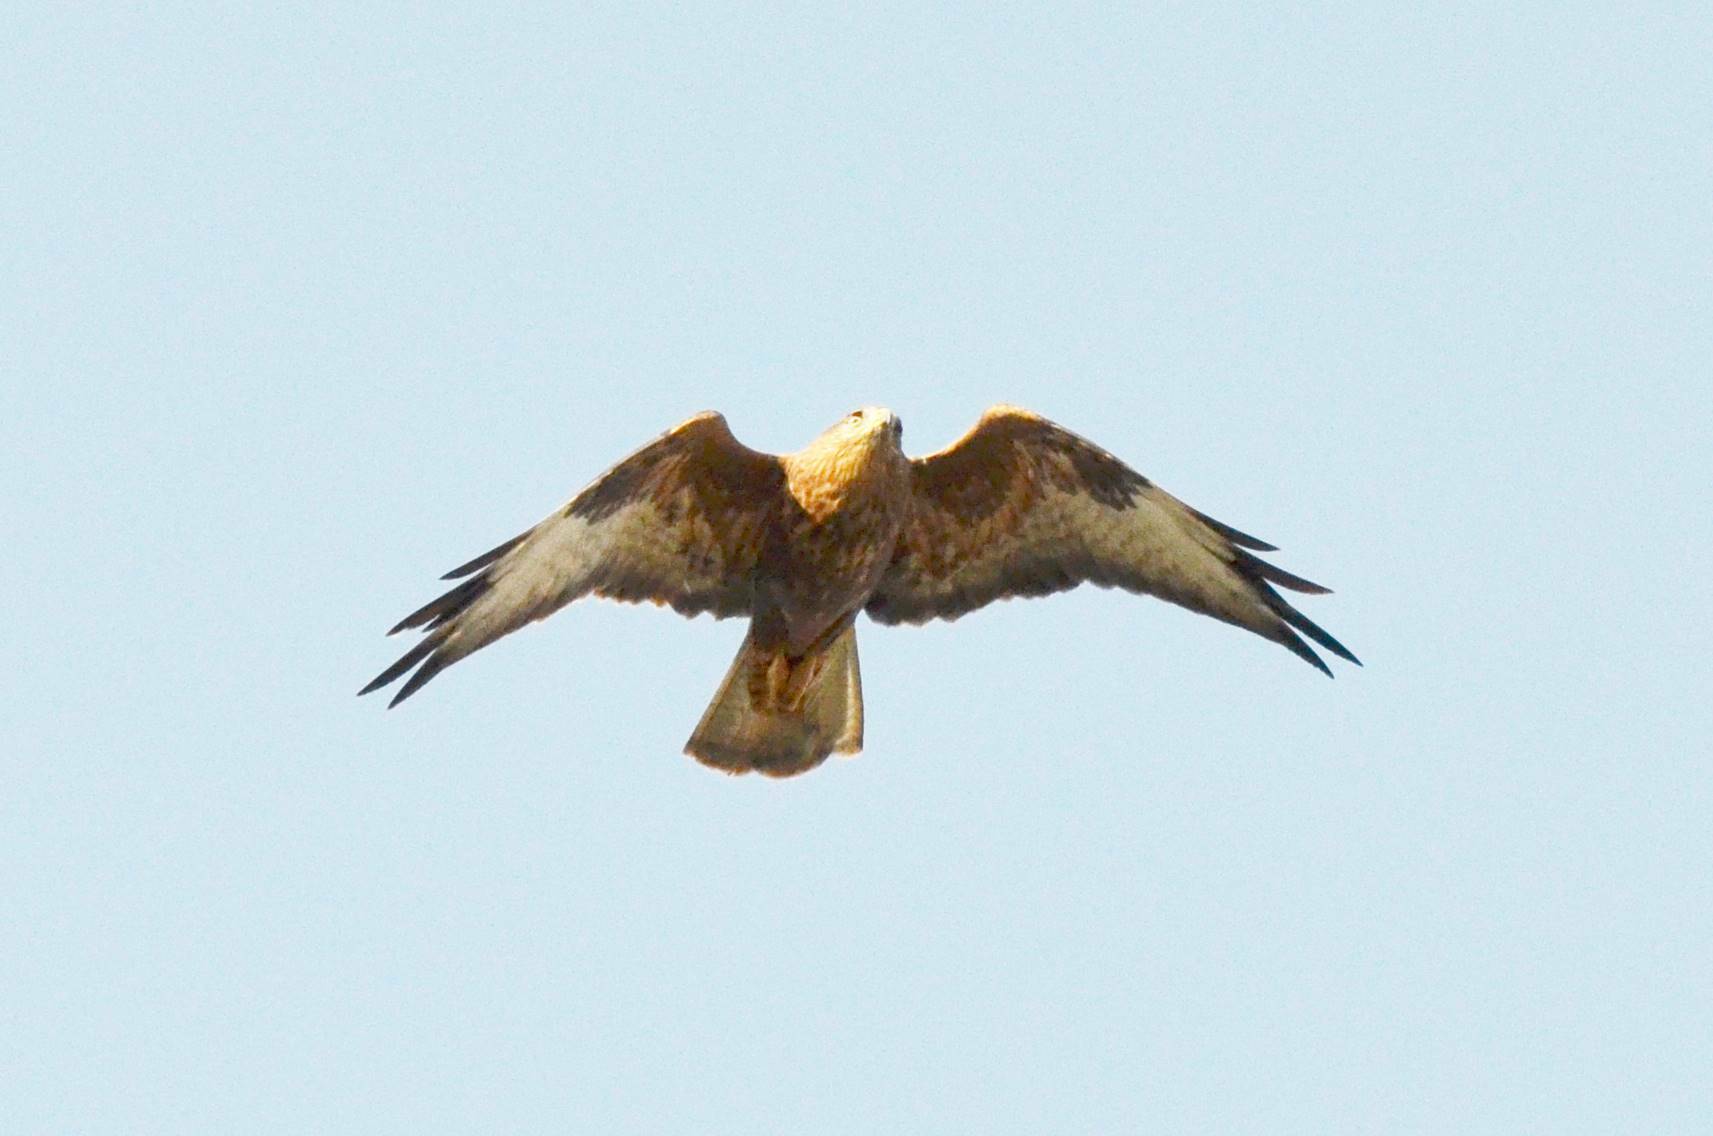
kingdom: Animalia
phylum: Chordata
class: Aves
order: Accipitriformes
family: Accipitridae
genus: Buteo
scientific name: Buteo rufinus
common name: Long-legged buzzard
